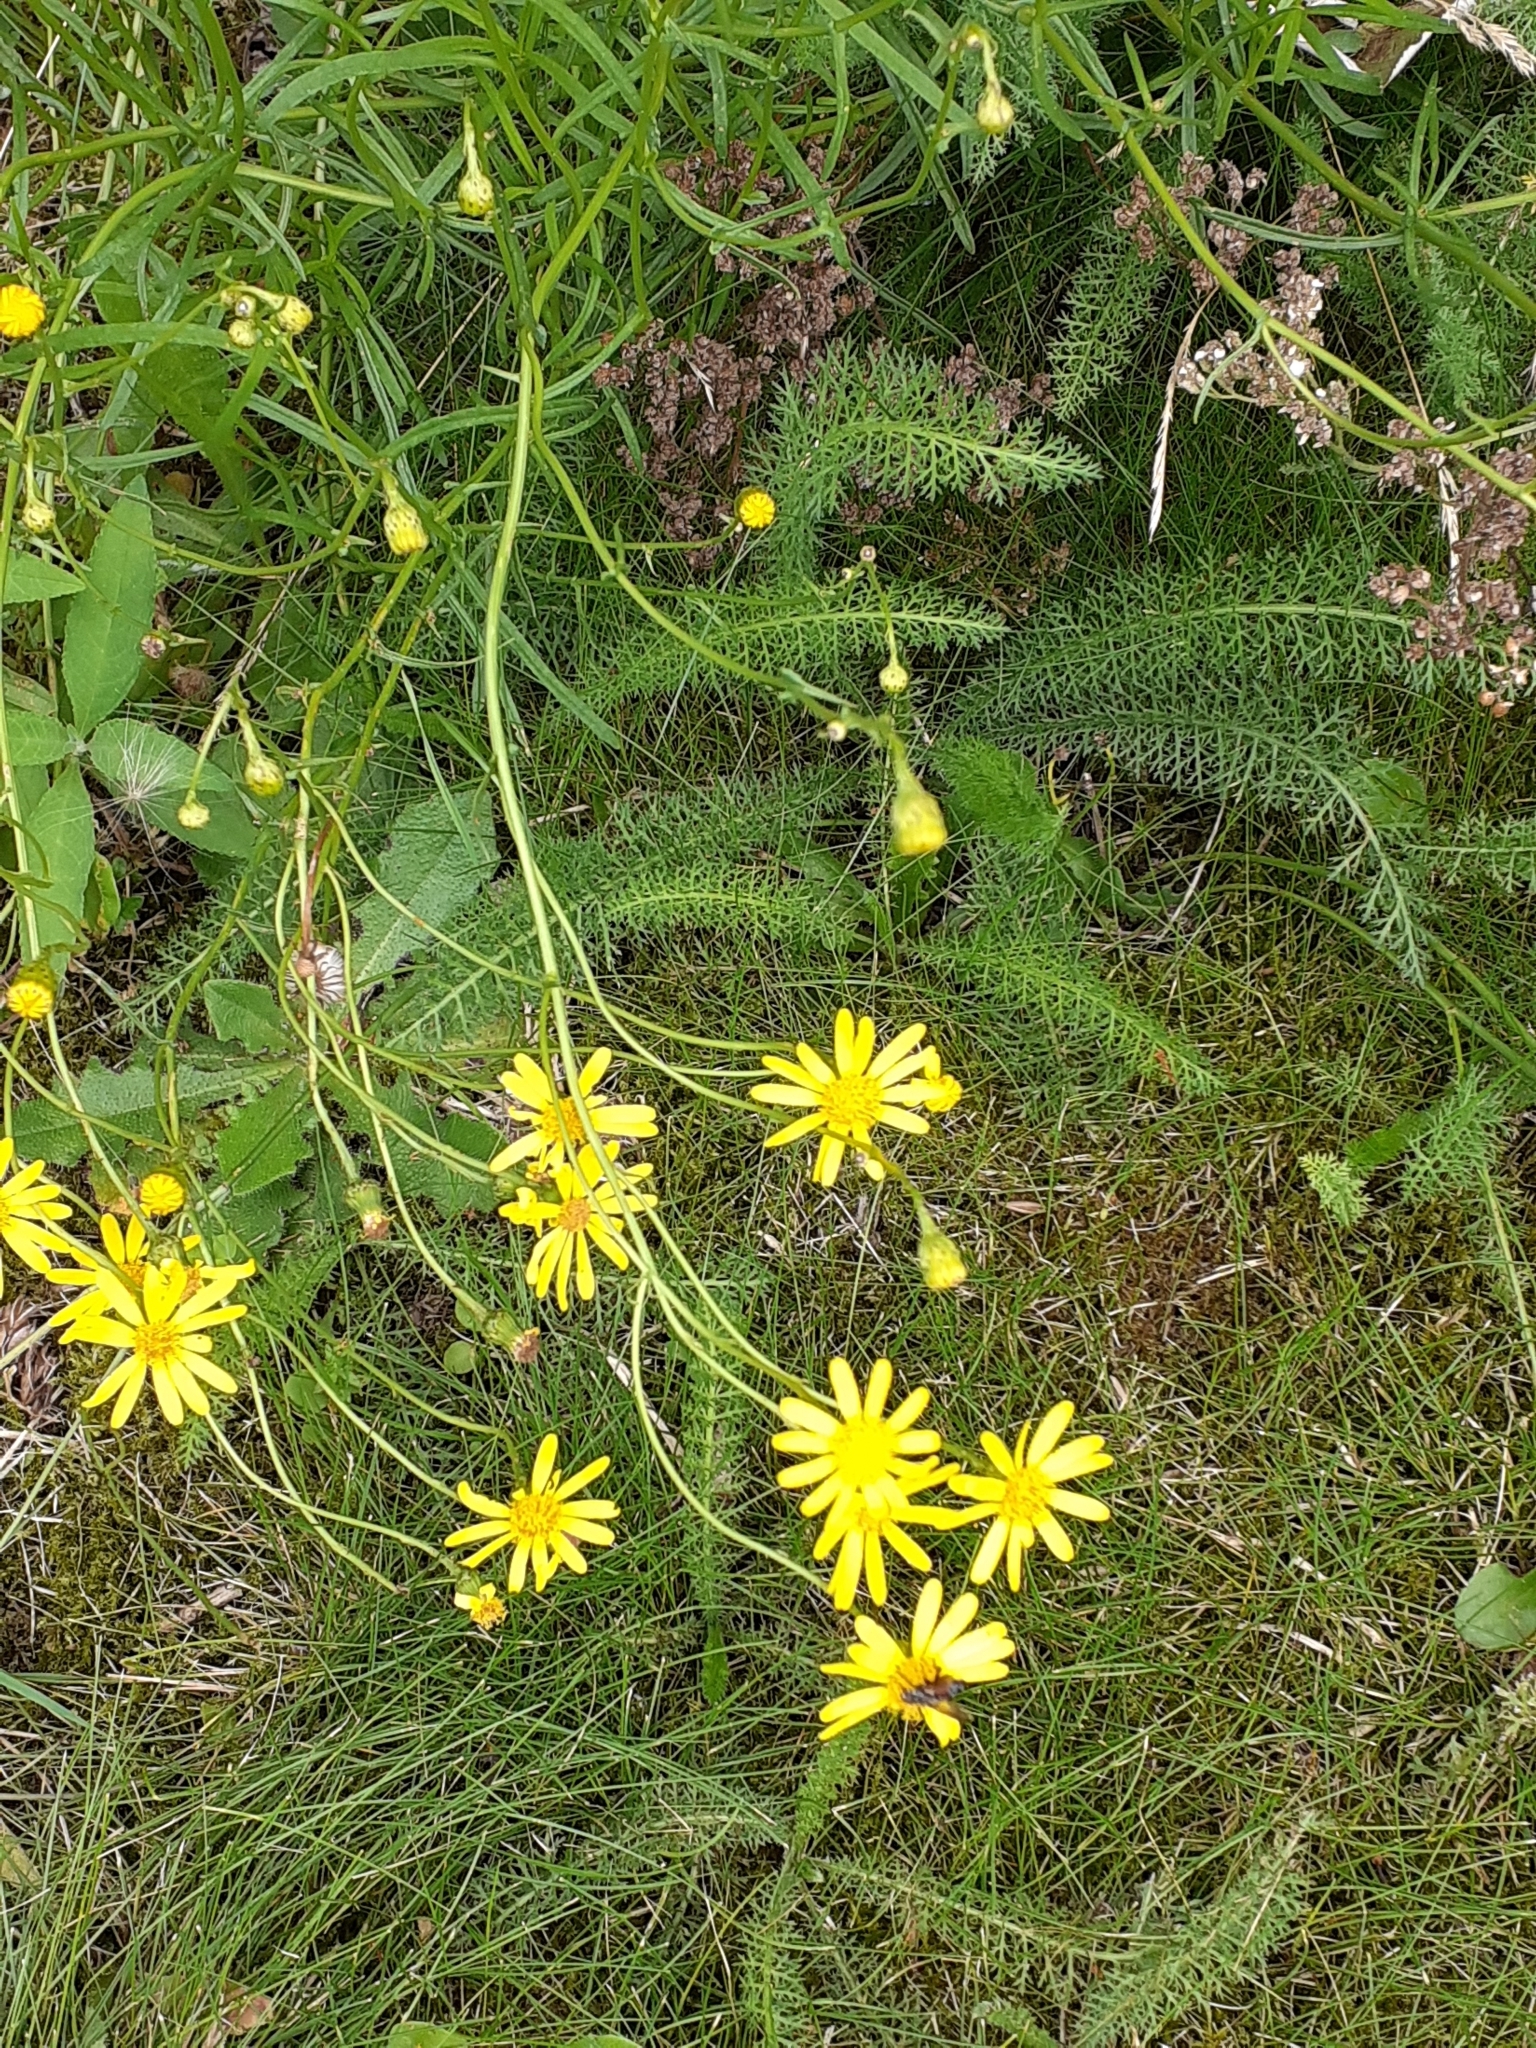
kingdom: Plantae
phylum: Tracheophyta
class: Magnoliopsida
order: Asterales
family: Asteraceae
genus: Senecio
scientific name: Senecio inaequidens
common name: Narrow-leaved ragwort
